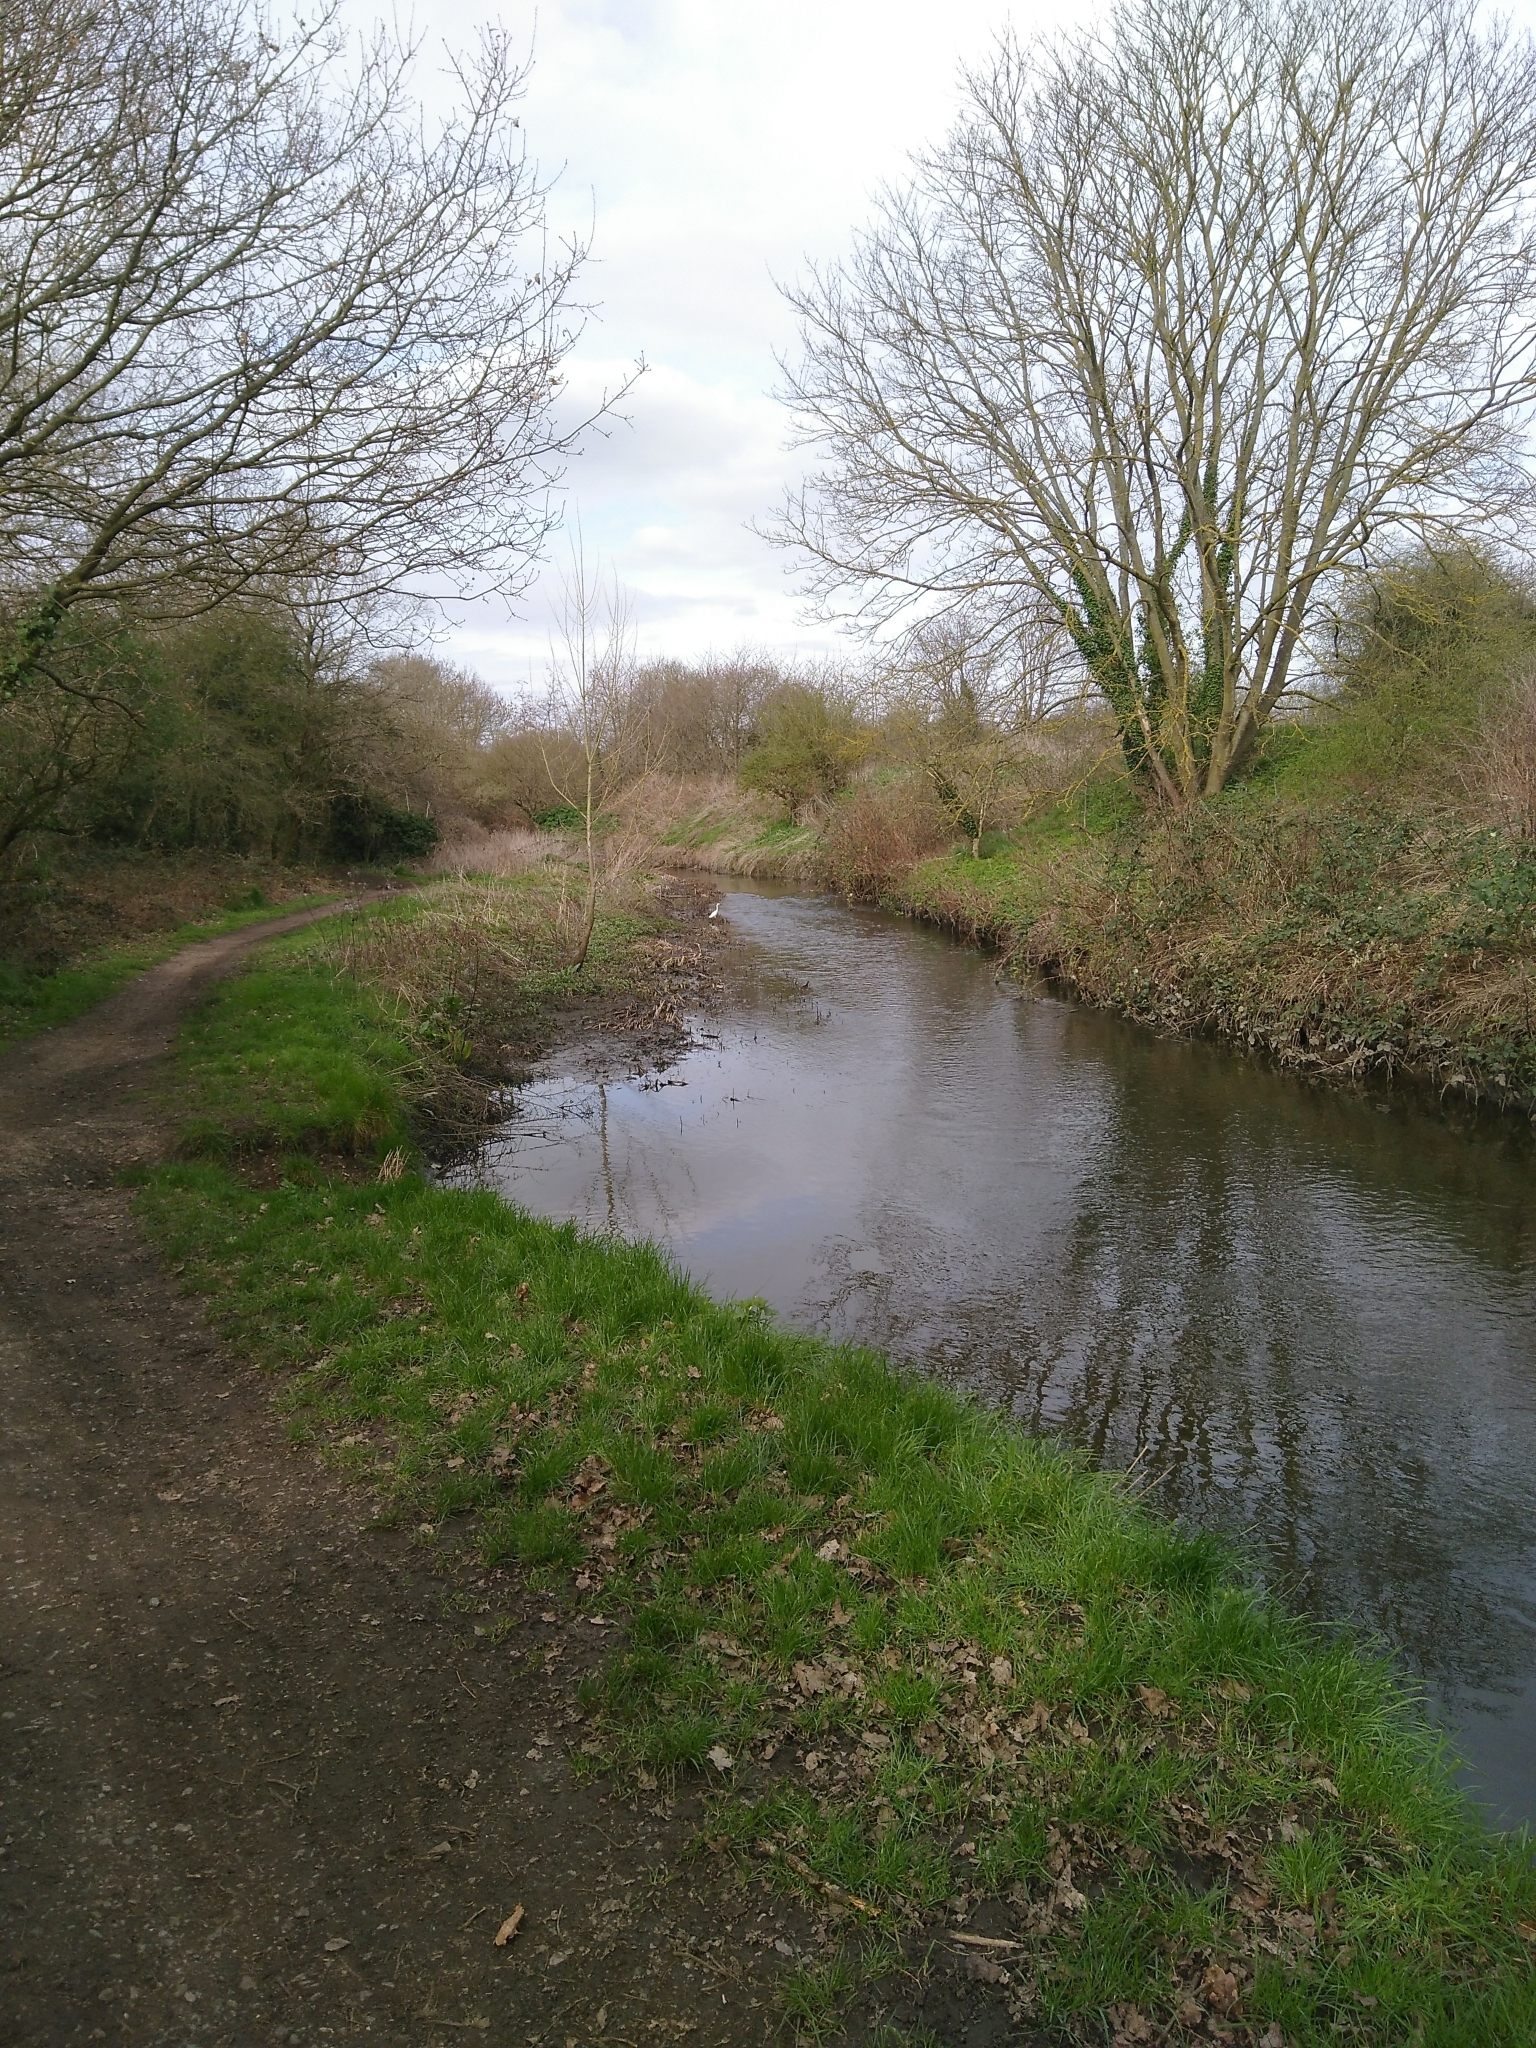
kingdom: Animalia
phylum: Chordata
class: Aves
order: Pelecaniformes
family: Ardeidae
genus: Egretta
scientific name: Egretta garzetta
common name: Little egret
